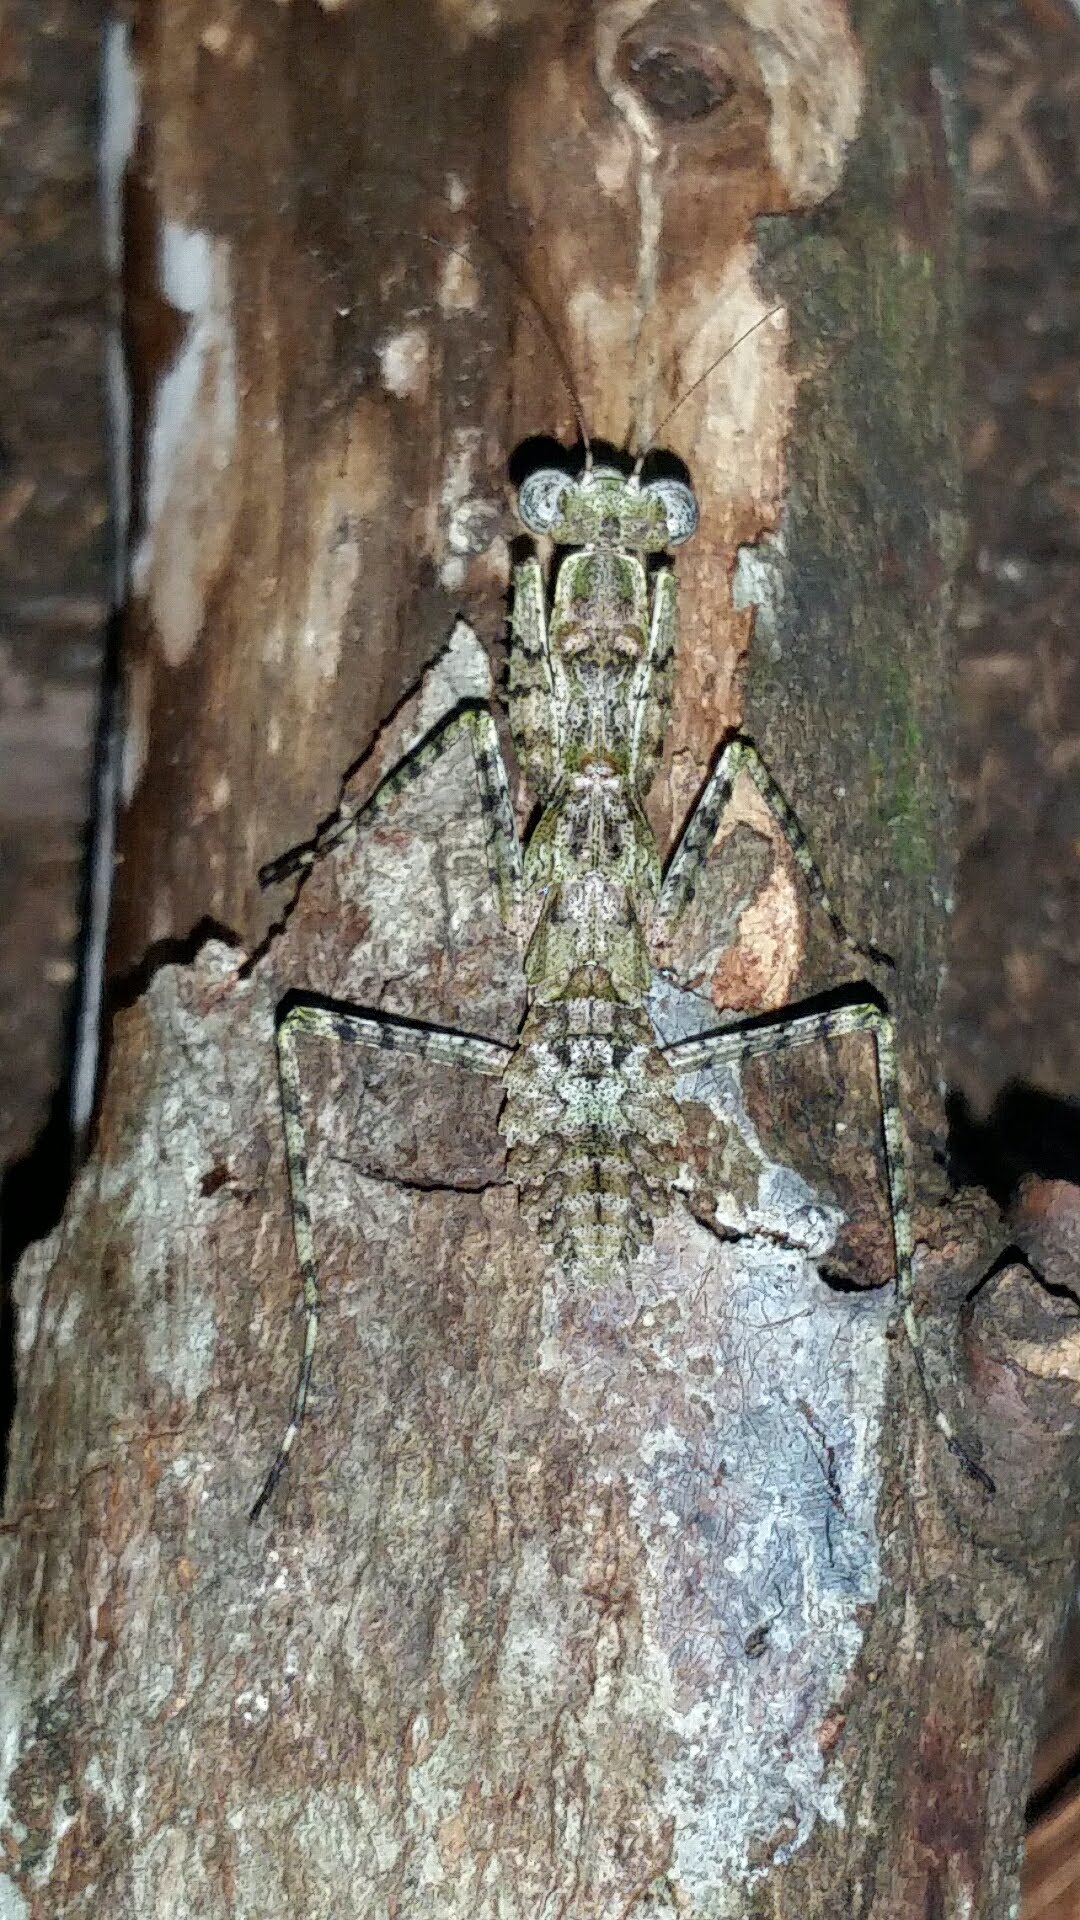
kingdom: Animalia
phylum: Arthropoda
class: Insecta
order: Mantodea
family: Epaphroditidae
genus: Gonatista
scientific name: Gonatista grisea
